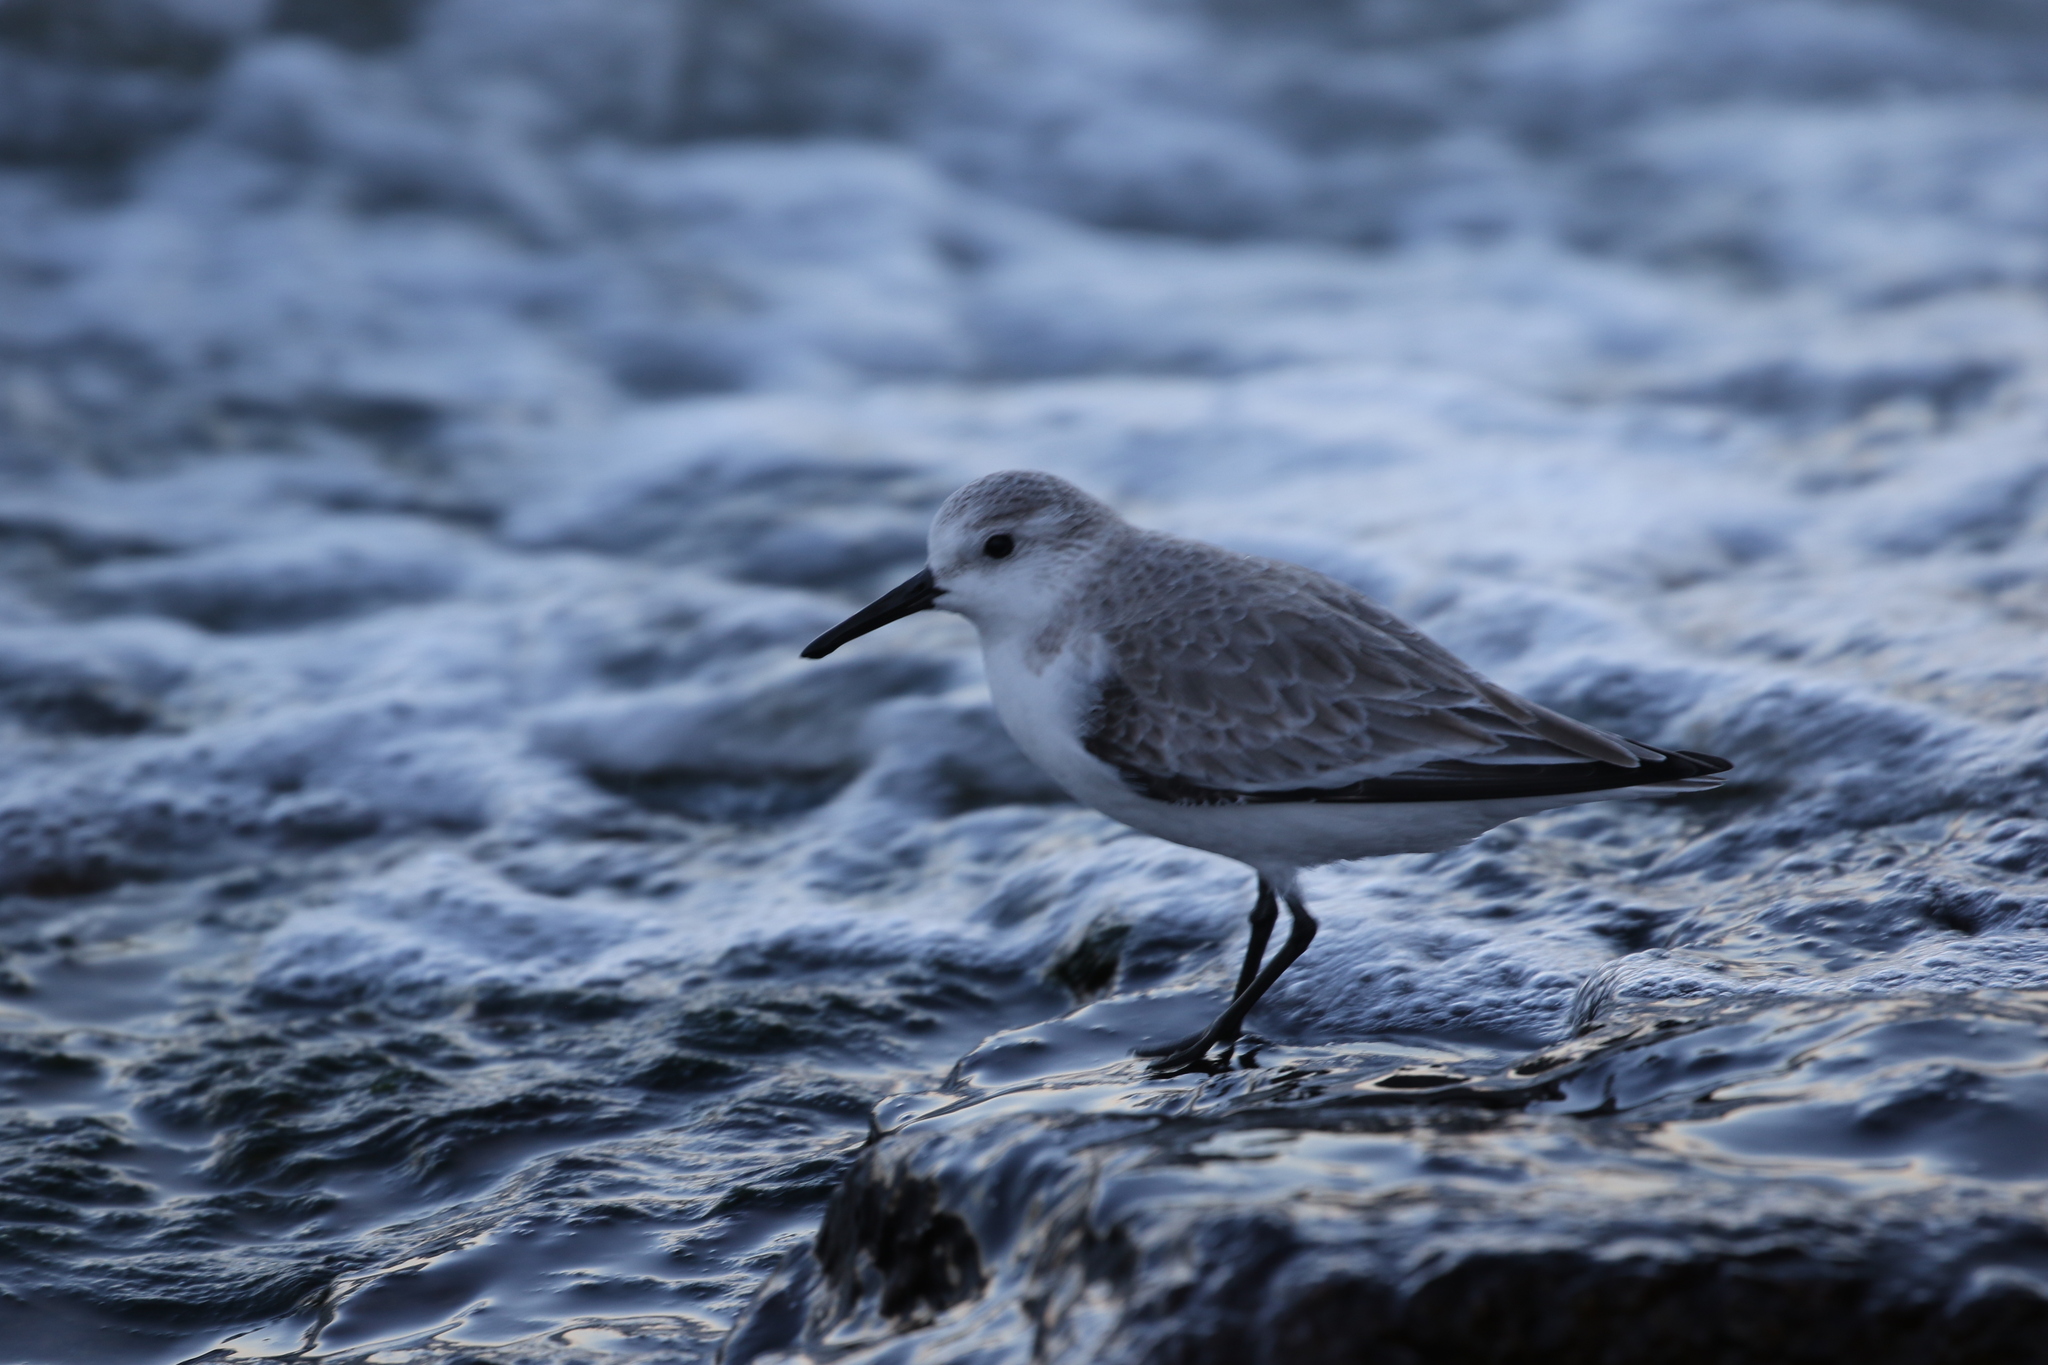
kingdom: Animalia
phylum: Chordata
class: Aves
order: Charadriiformes
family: Scolopacidae
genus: Calidris
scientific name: Calidris alba
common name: Sanderling
